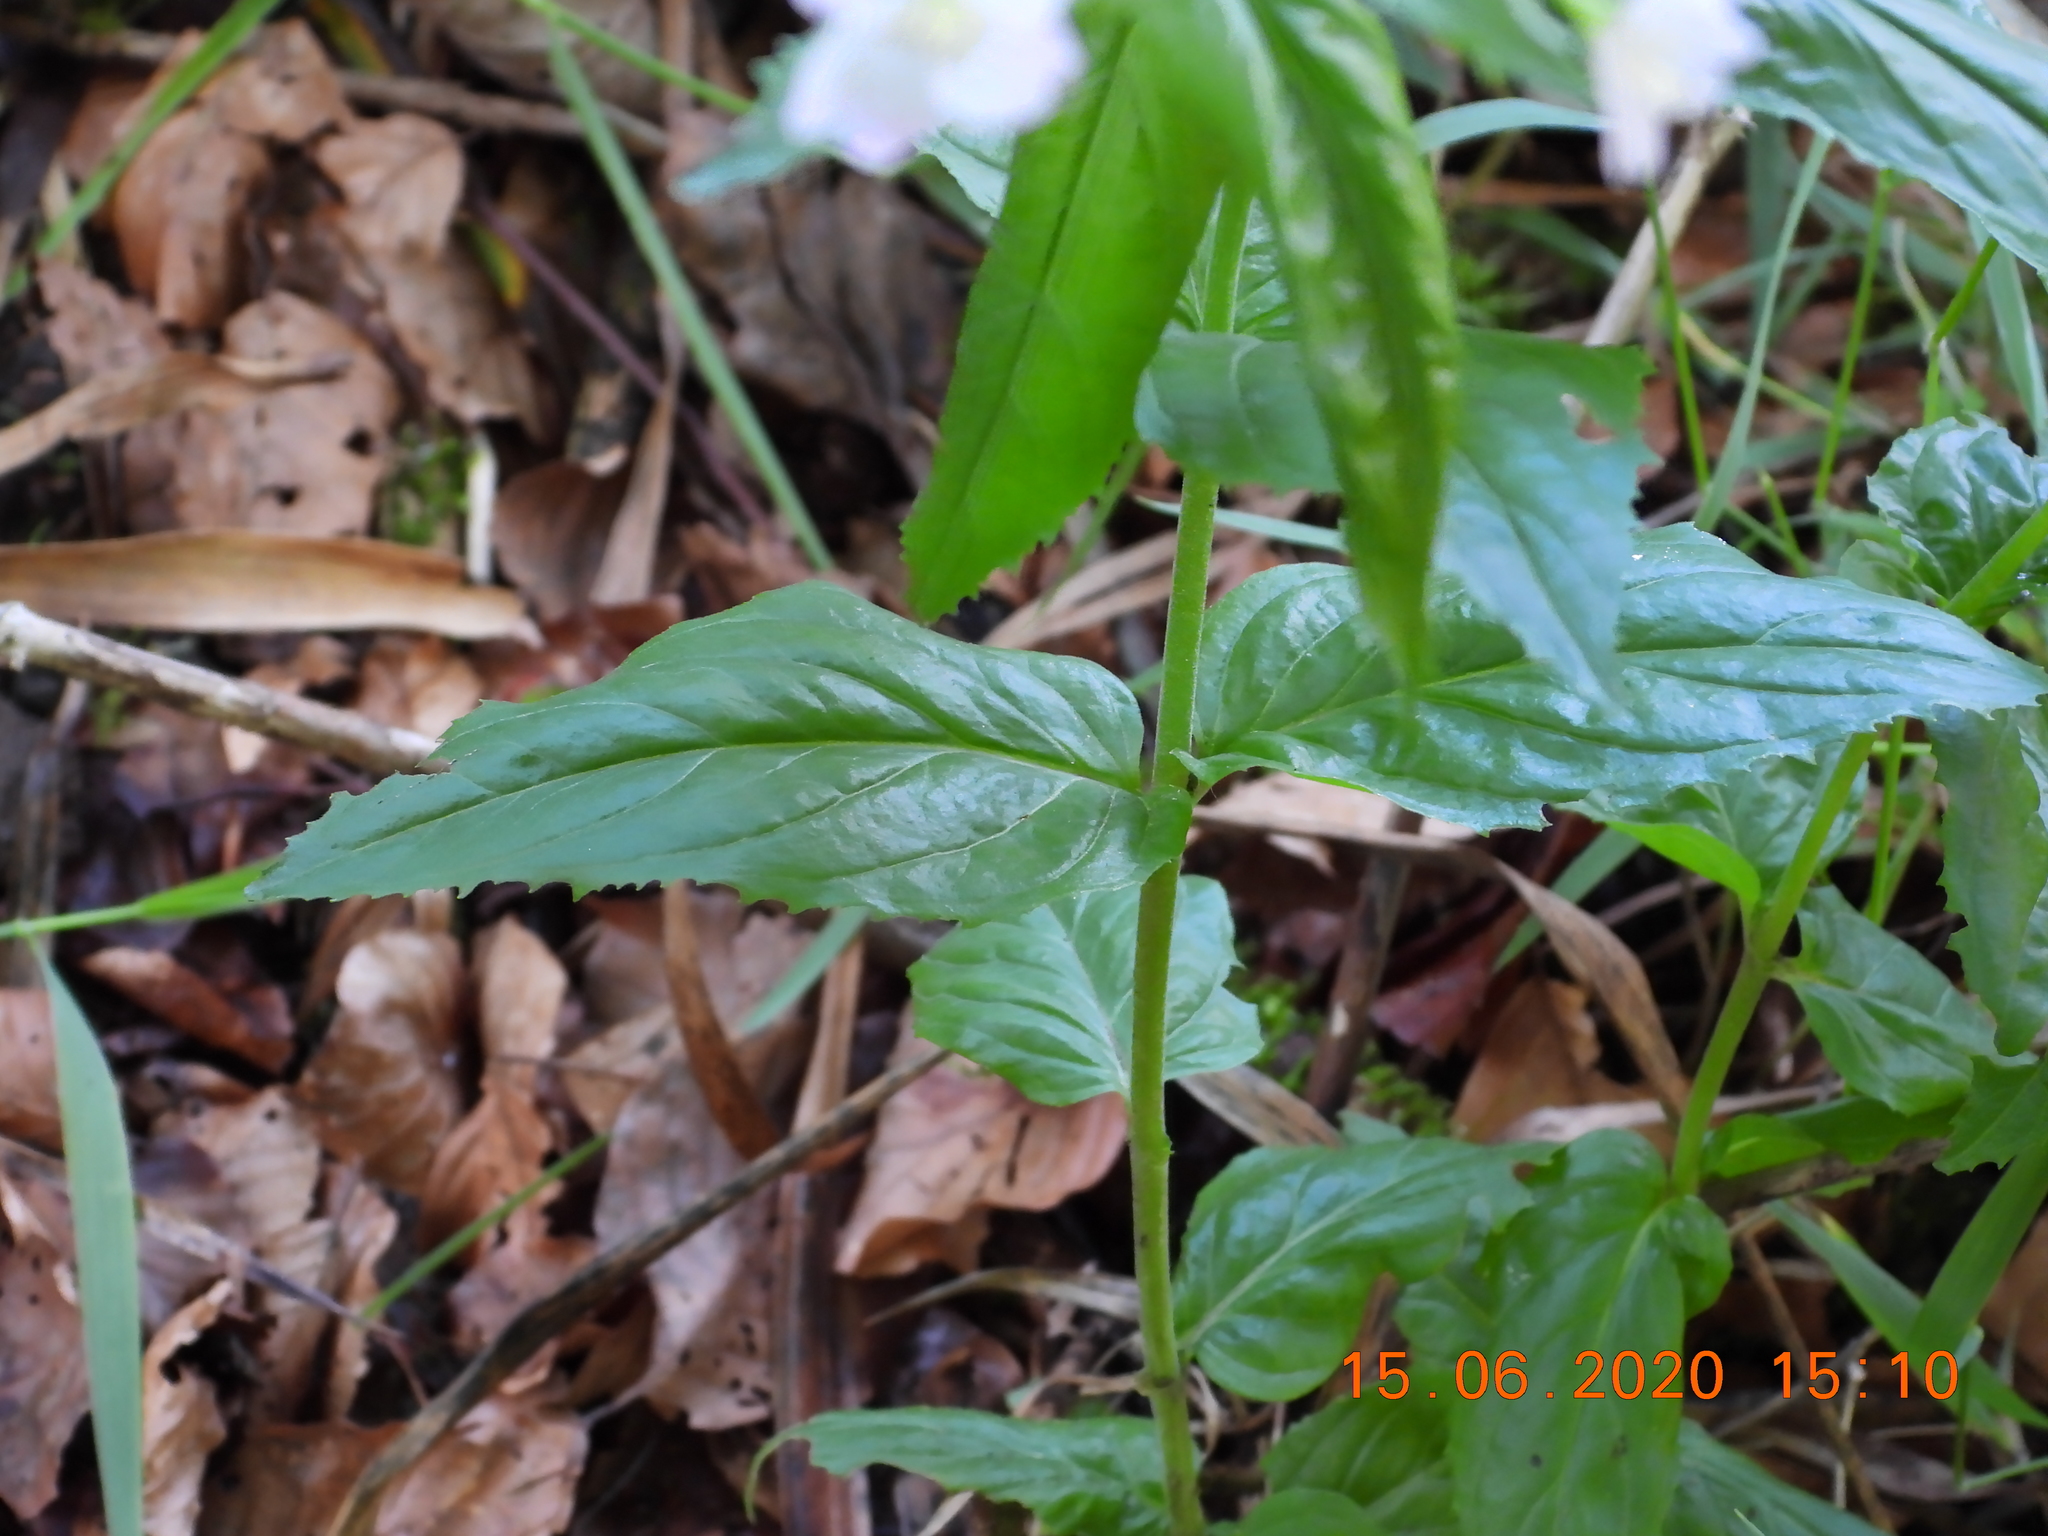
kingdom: Plantae
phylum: Tracheophyta
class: Magnoliopsida
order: Myrtales
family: Onagraceae
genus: Epilobium
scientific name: Epilobium montanum
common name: Broad-leaved willowherb
